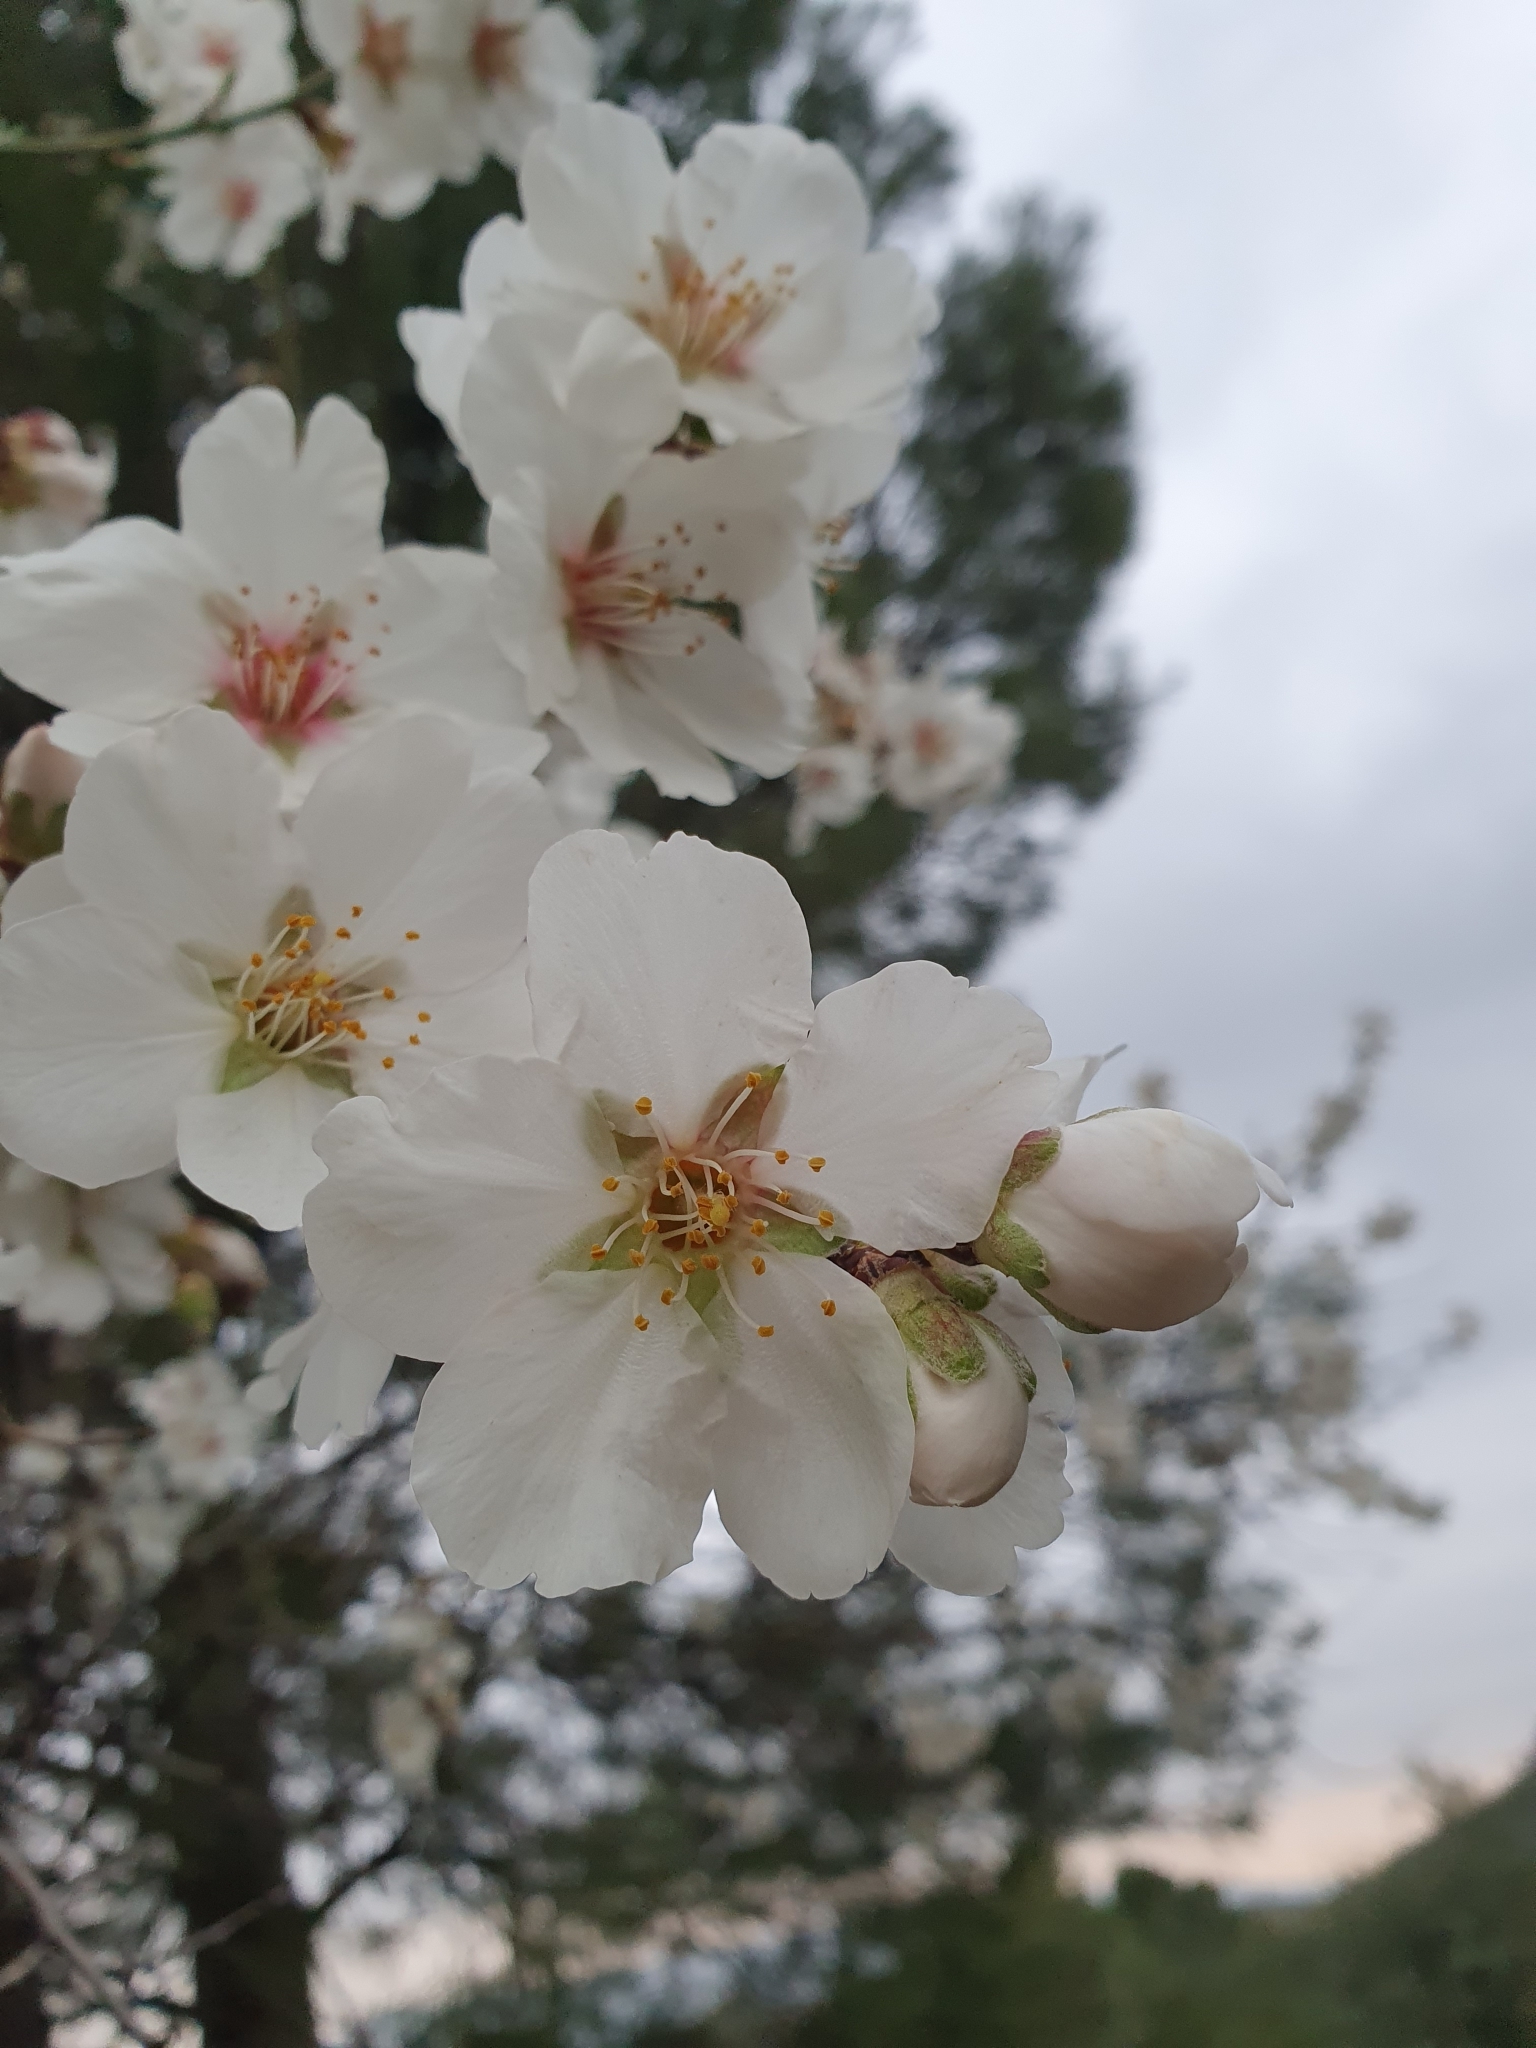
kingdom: Plantae
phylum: Tracheophyta
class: Magnoliopsida
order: Rosales
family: Rosaceae
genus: Prunus
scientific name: Prunus amygdalus
